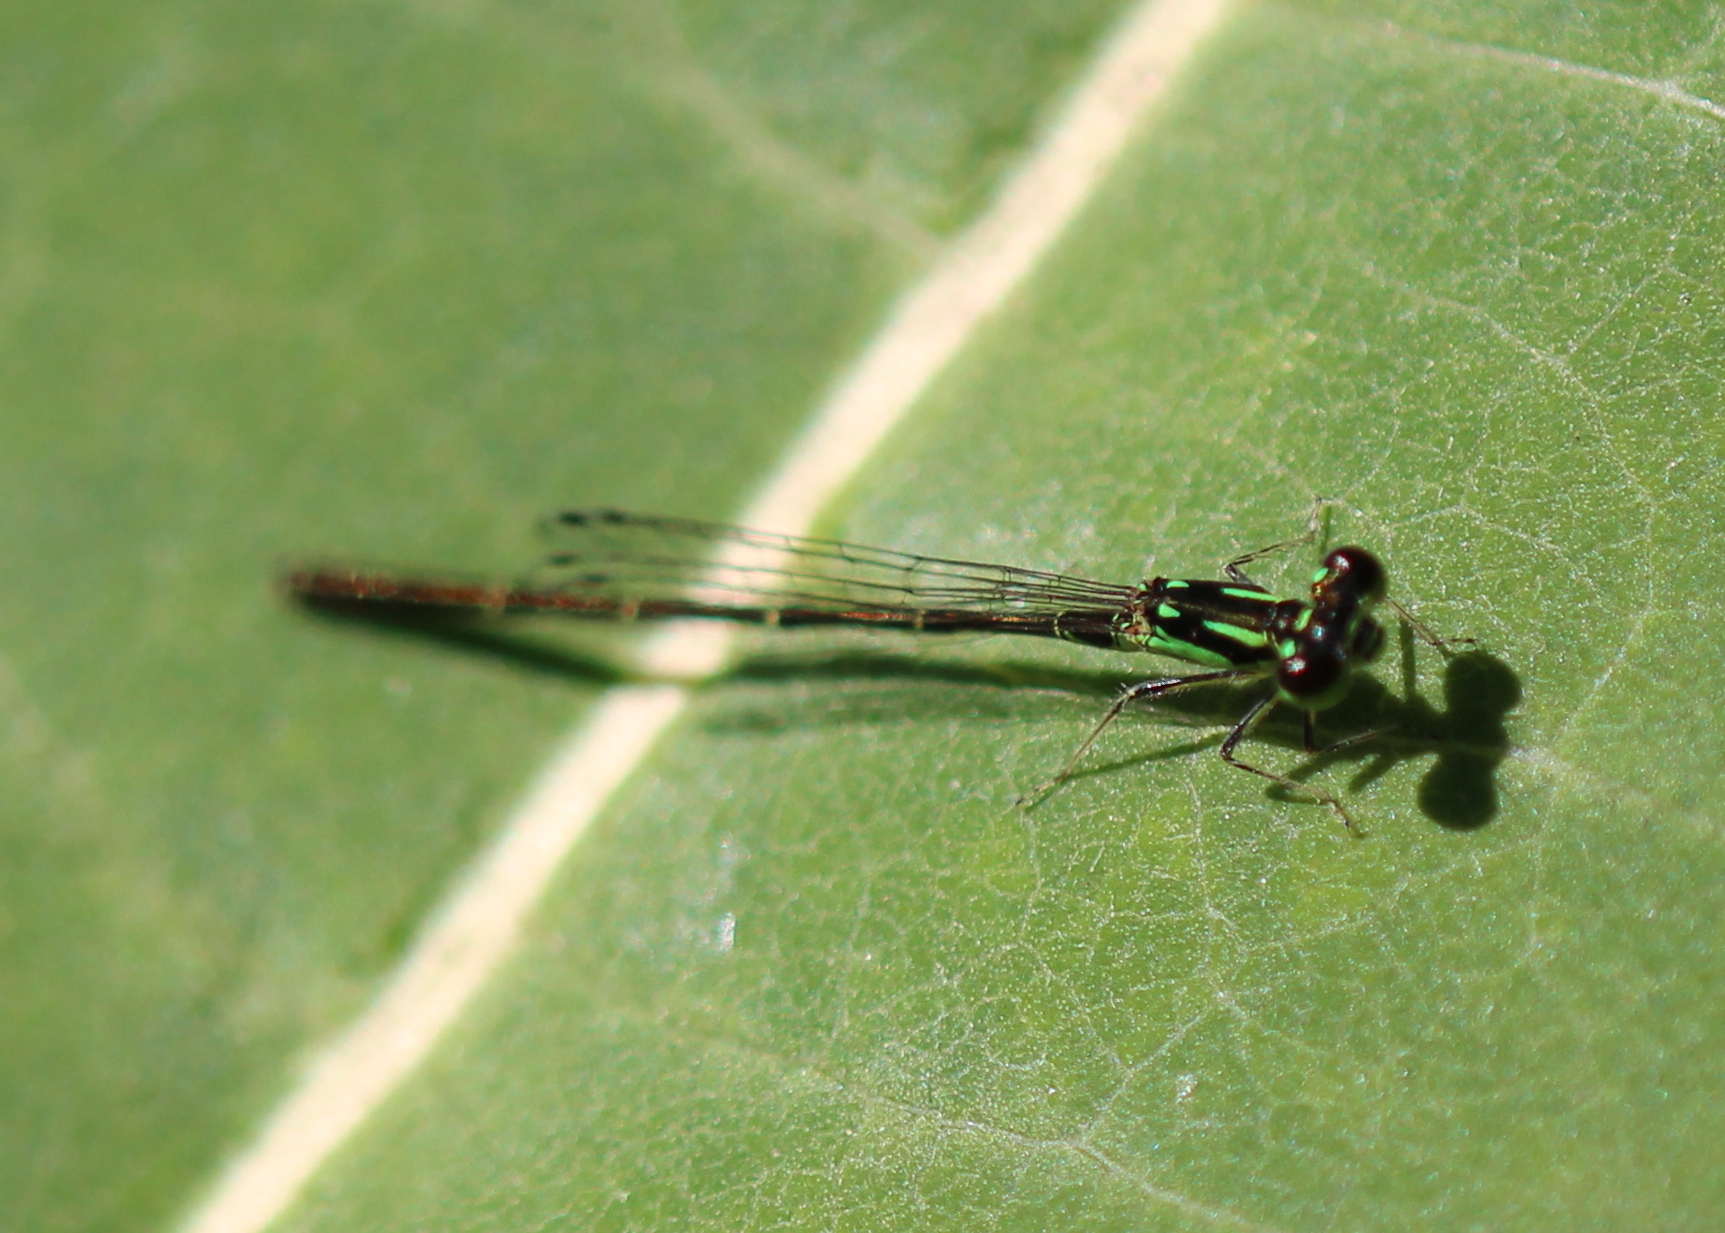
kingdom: Animalia
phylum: Arthropoda
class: Insecta
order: Odonata
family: Coenagrionidae
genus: Ischnura
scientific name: Ischnura posita
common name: Fragile forktail
